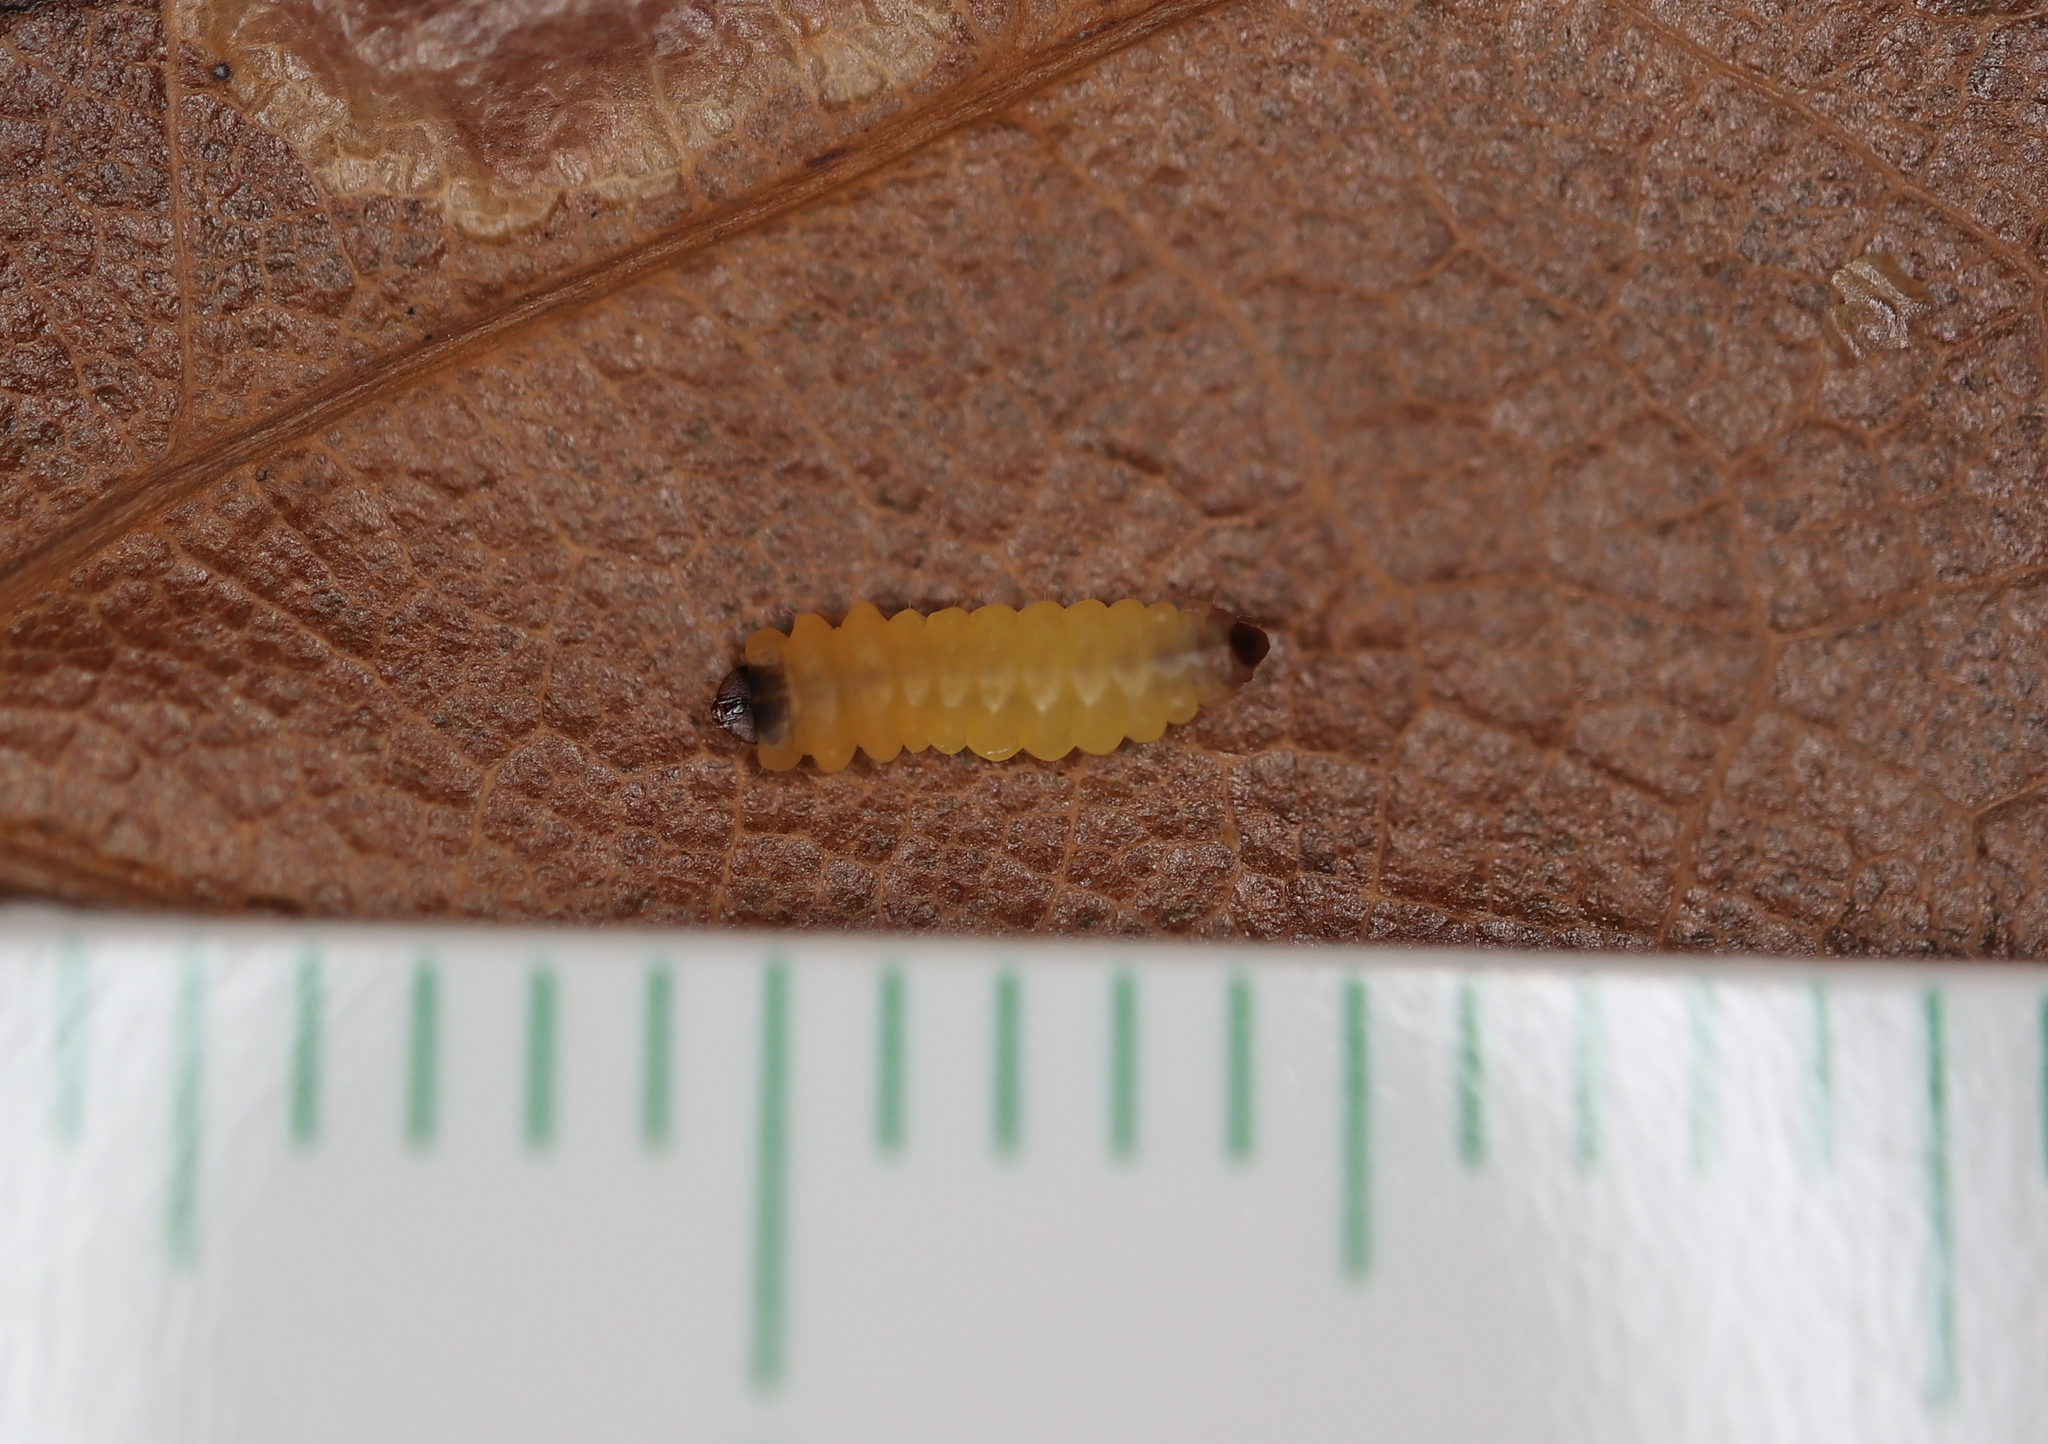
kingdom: Animalia
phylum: Arthropoda
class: Insecta
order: Lepidoptera
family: Tischeriidae
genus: Tischeria
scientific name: Tischeria quercitella
